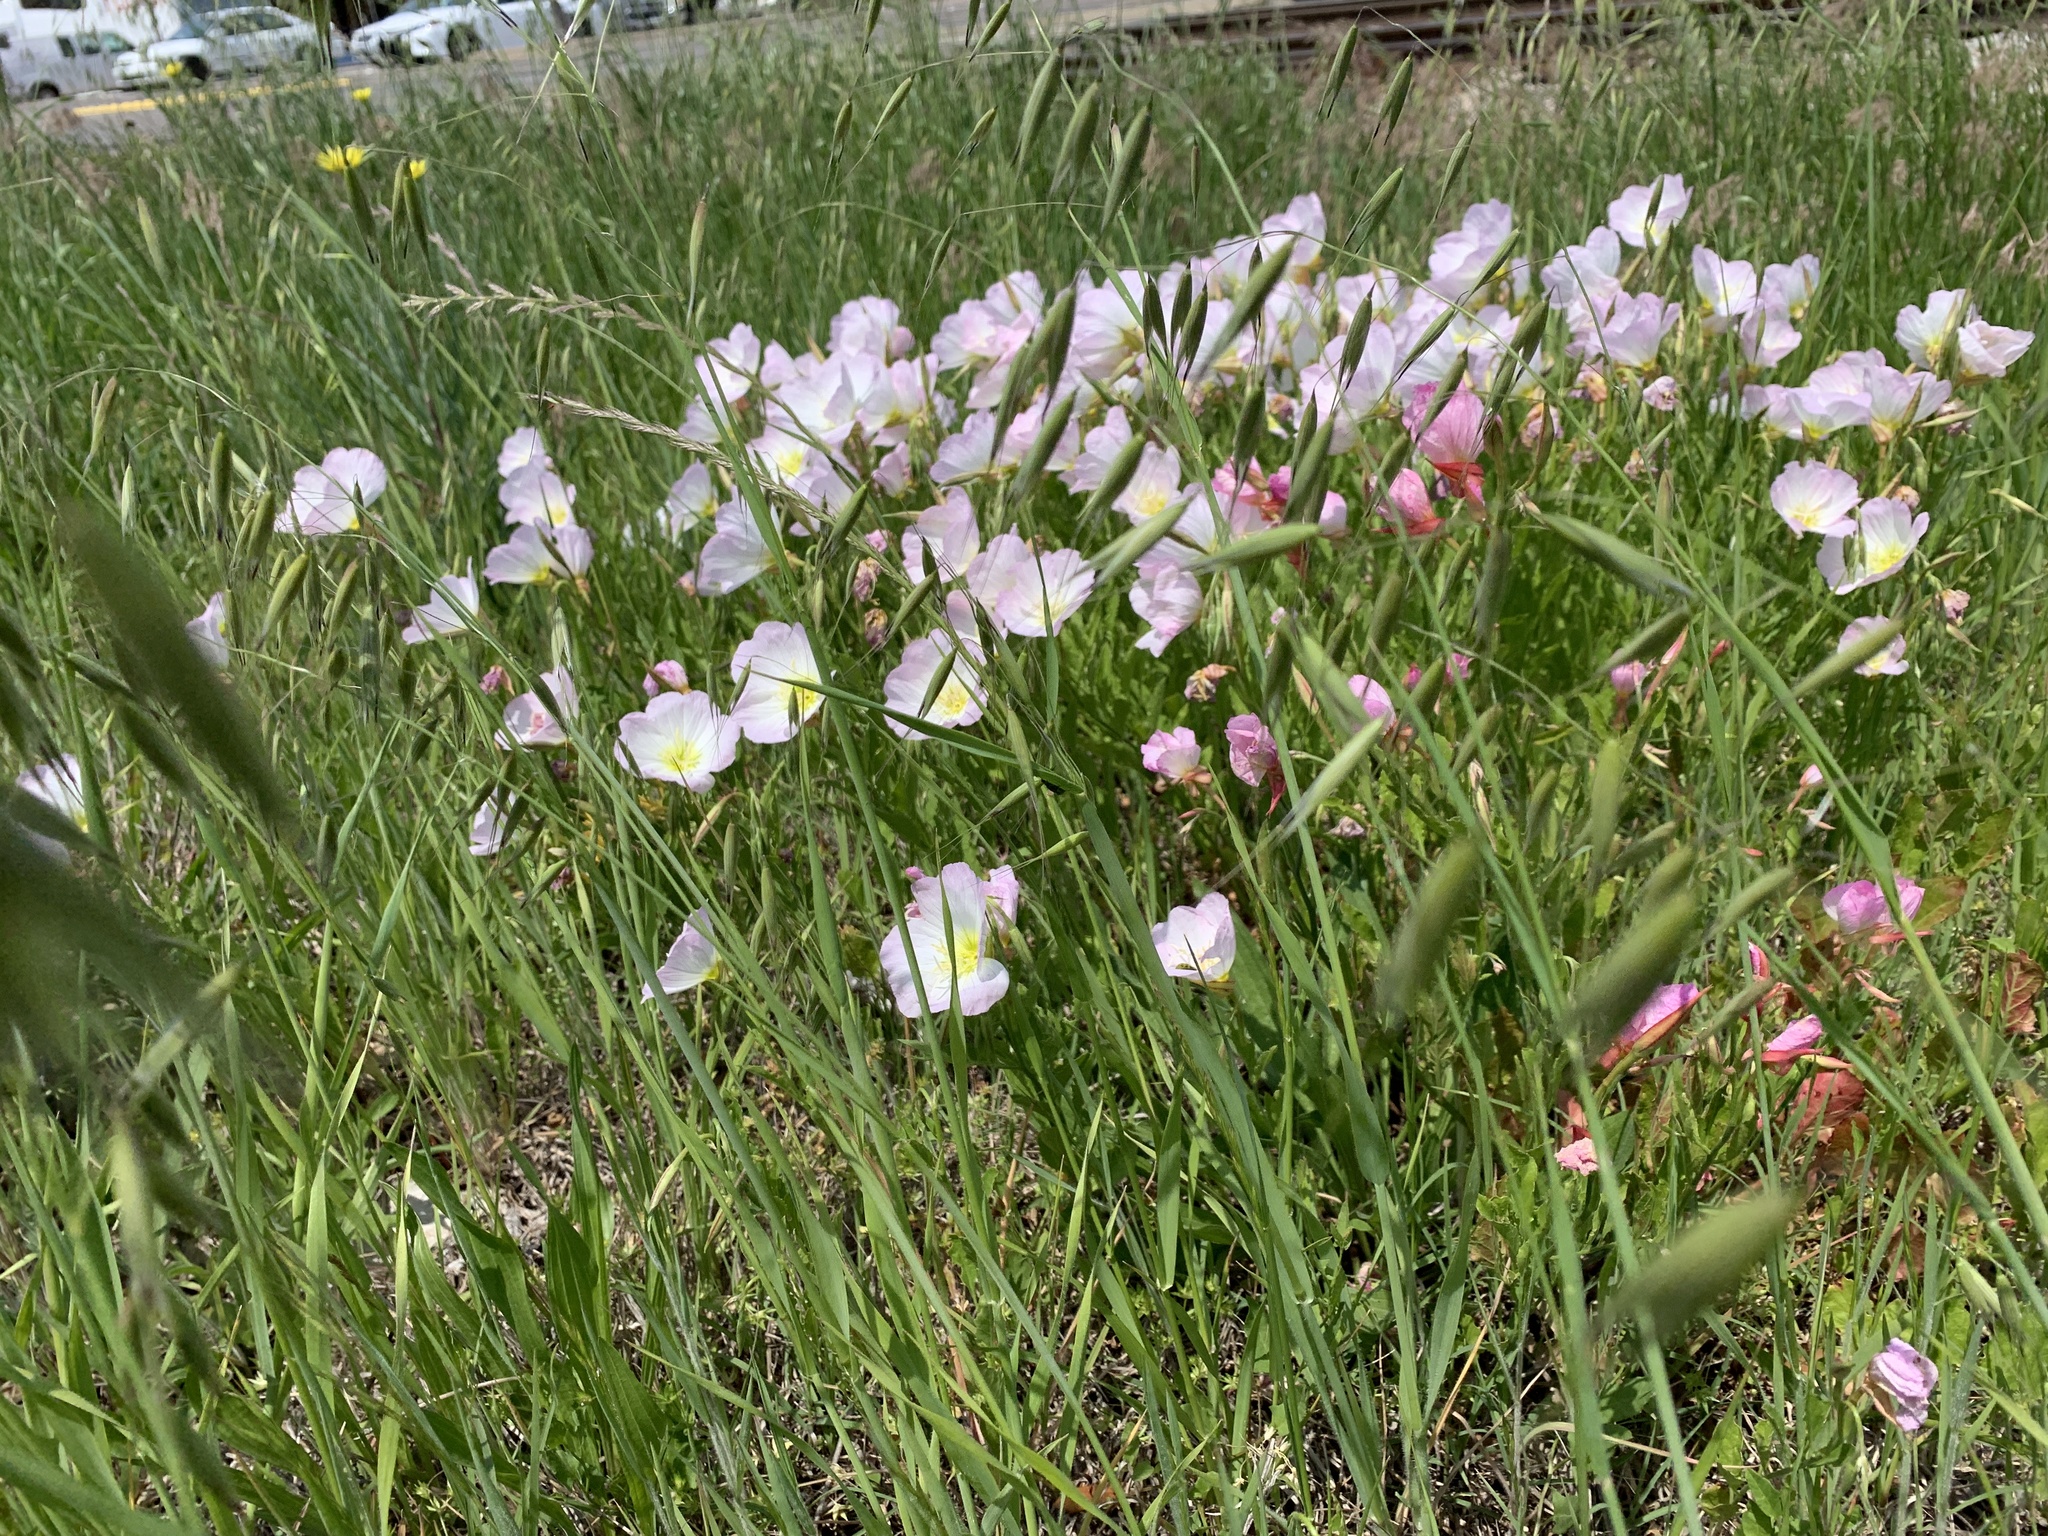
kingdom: Plantae
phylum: Tracheophyta
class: Magnoliopsida
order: Myrtales
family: Onagraceae
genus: Oenothera
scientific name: Oenothera speciosa
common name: White evening-primrose
